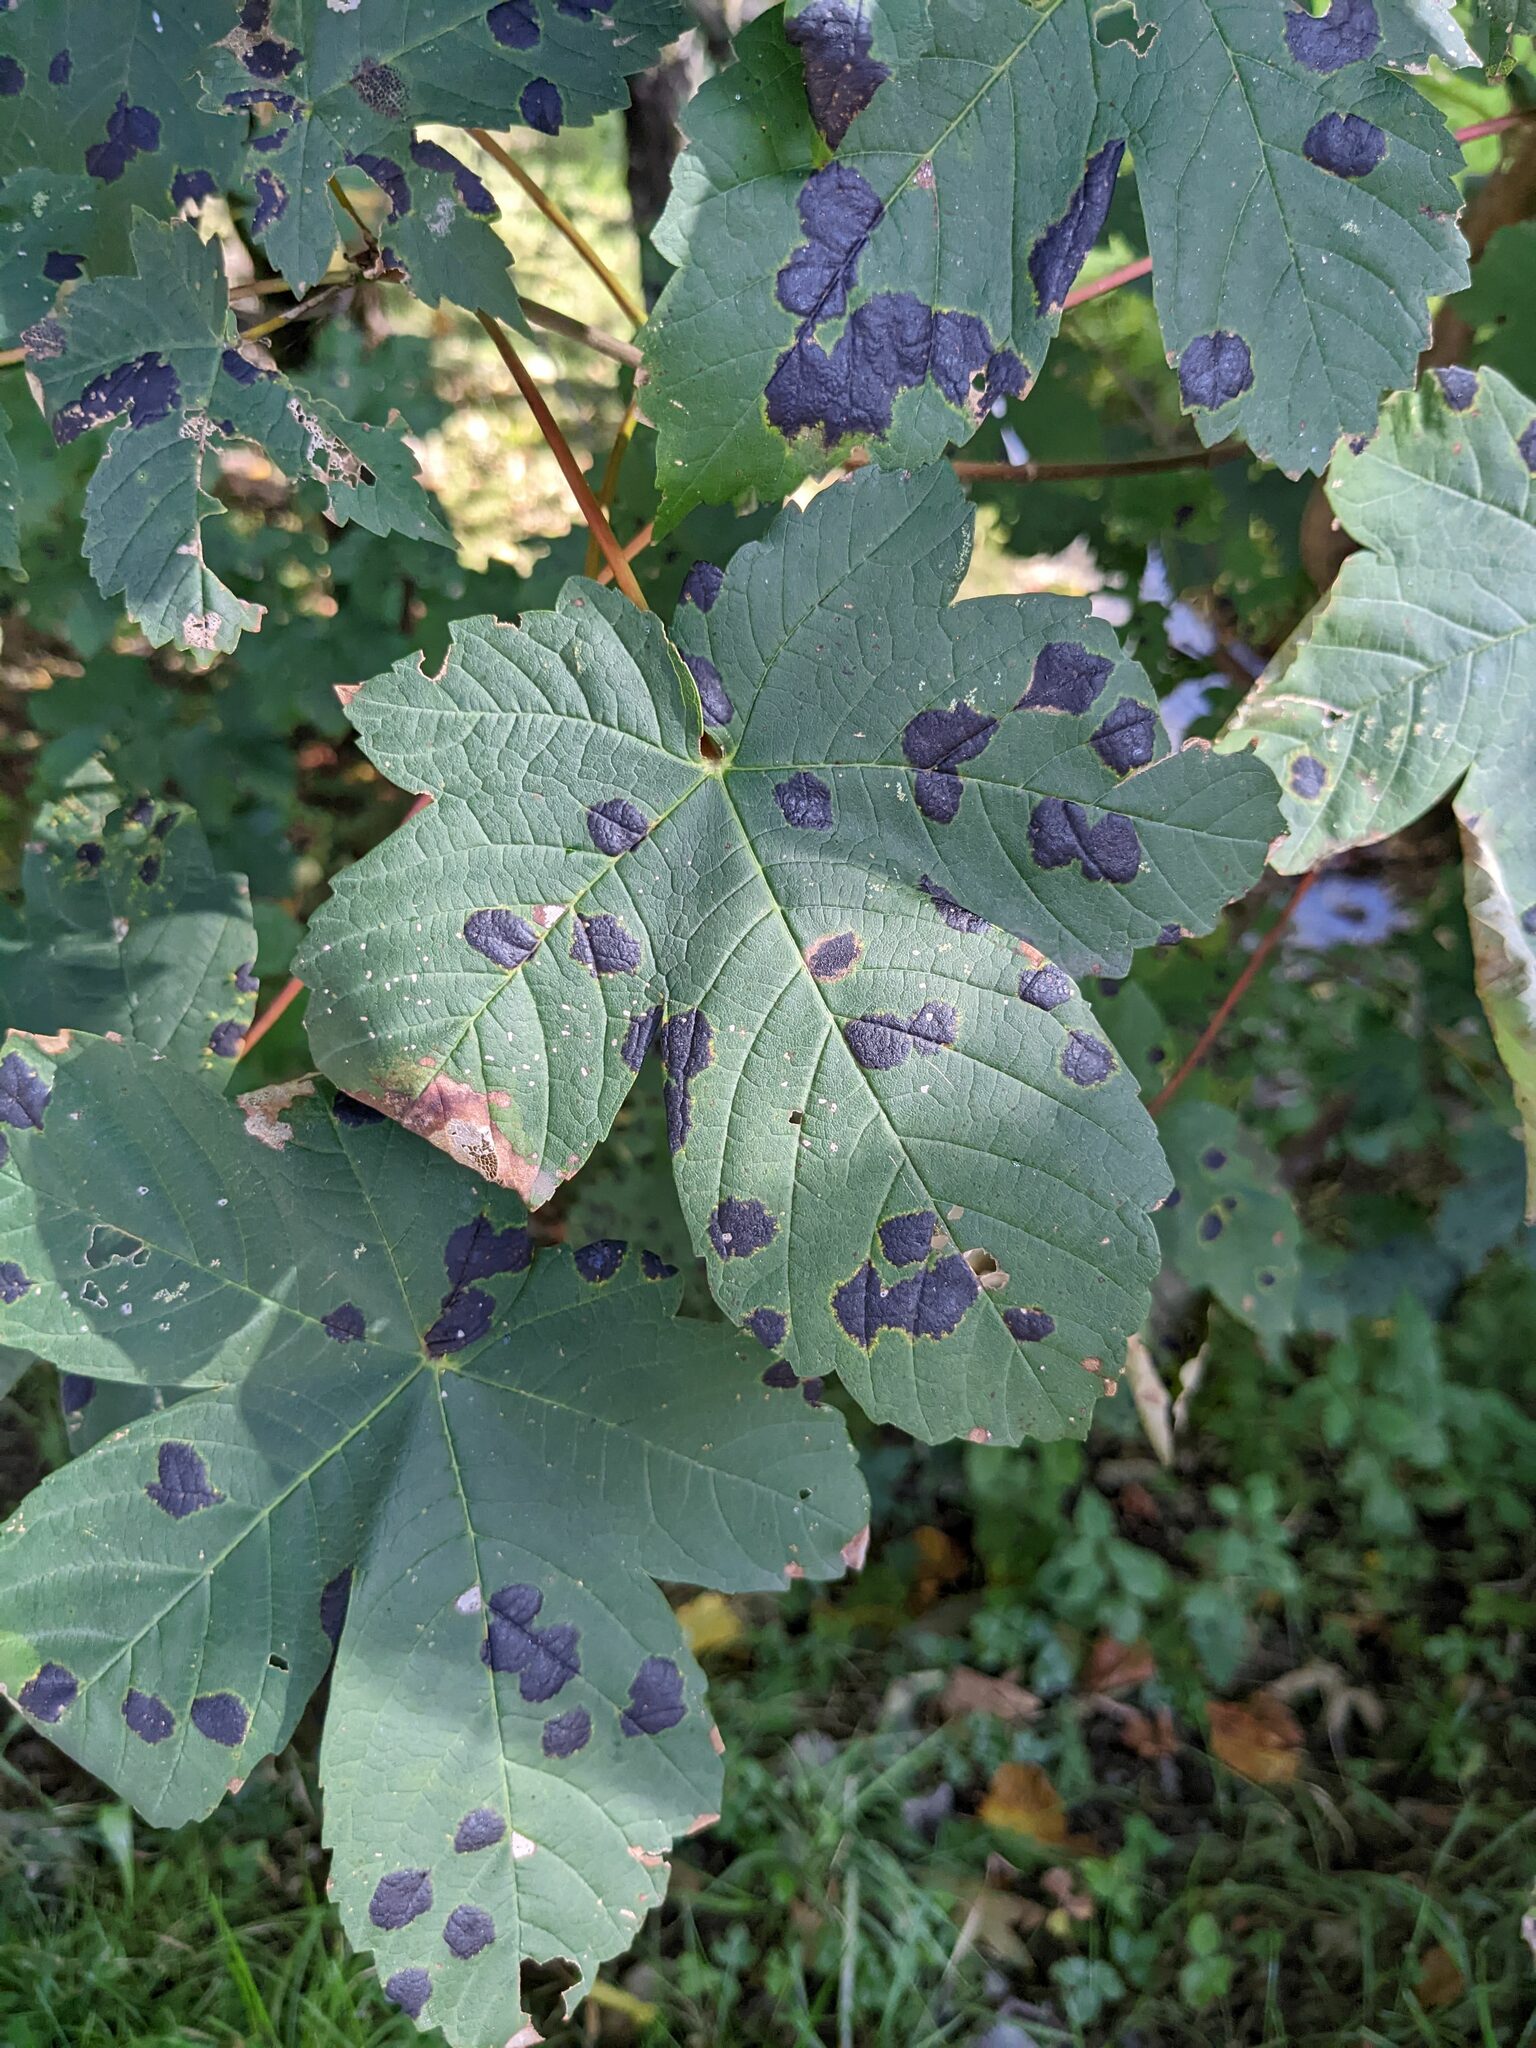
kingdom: Fungi
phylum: Ascomycota
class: Leotiomycetes
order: Rhytismatales
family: Rhytismataceae
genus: Rhytisma
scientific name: Rhytisma acerinum
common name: European tar spot
